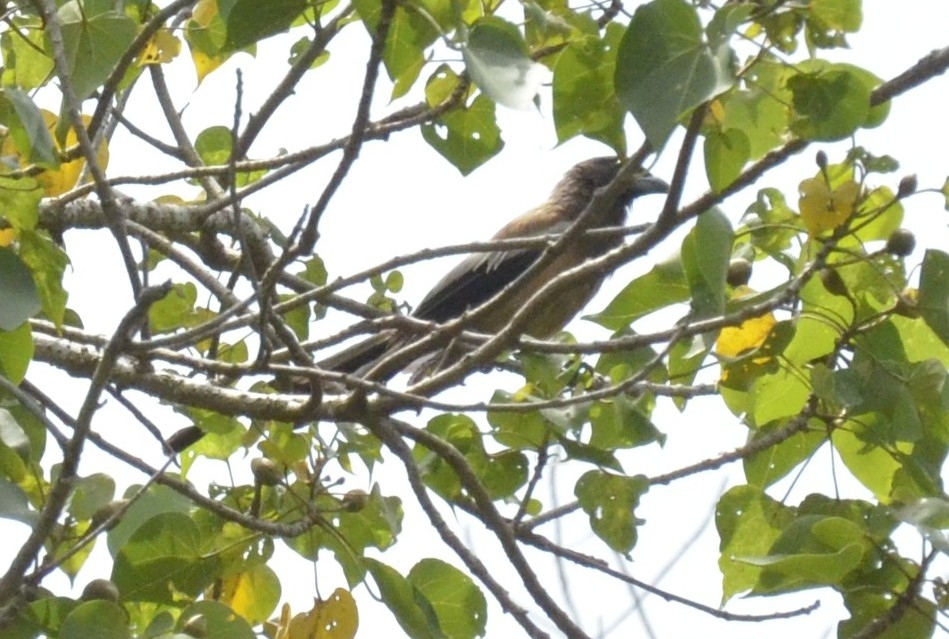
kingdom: Animalia
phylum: Chordata
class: Aves
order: Passeriformes
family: Corvidae
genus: Dendrocitta
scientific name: Dendrocitta vagabunda
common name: Rufous treepie
